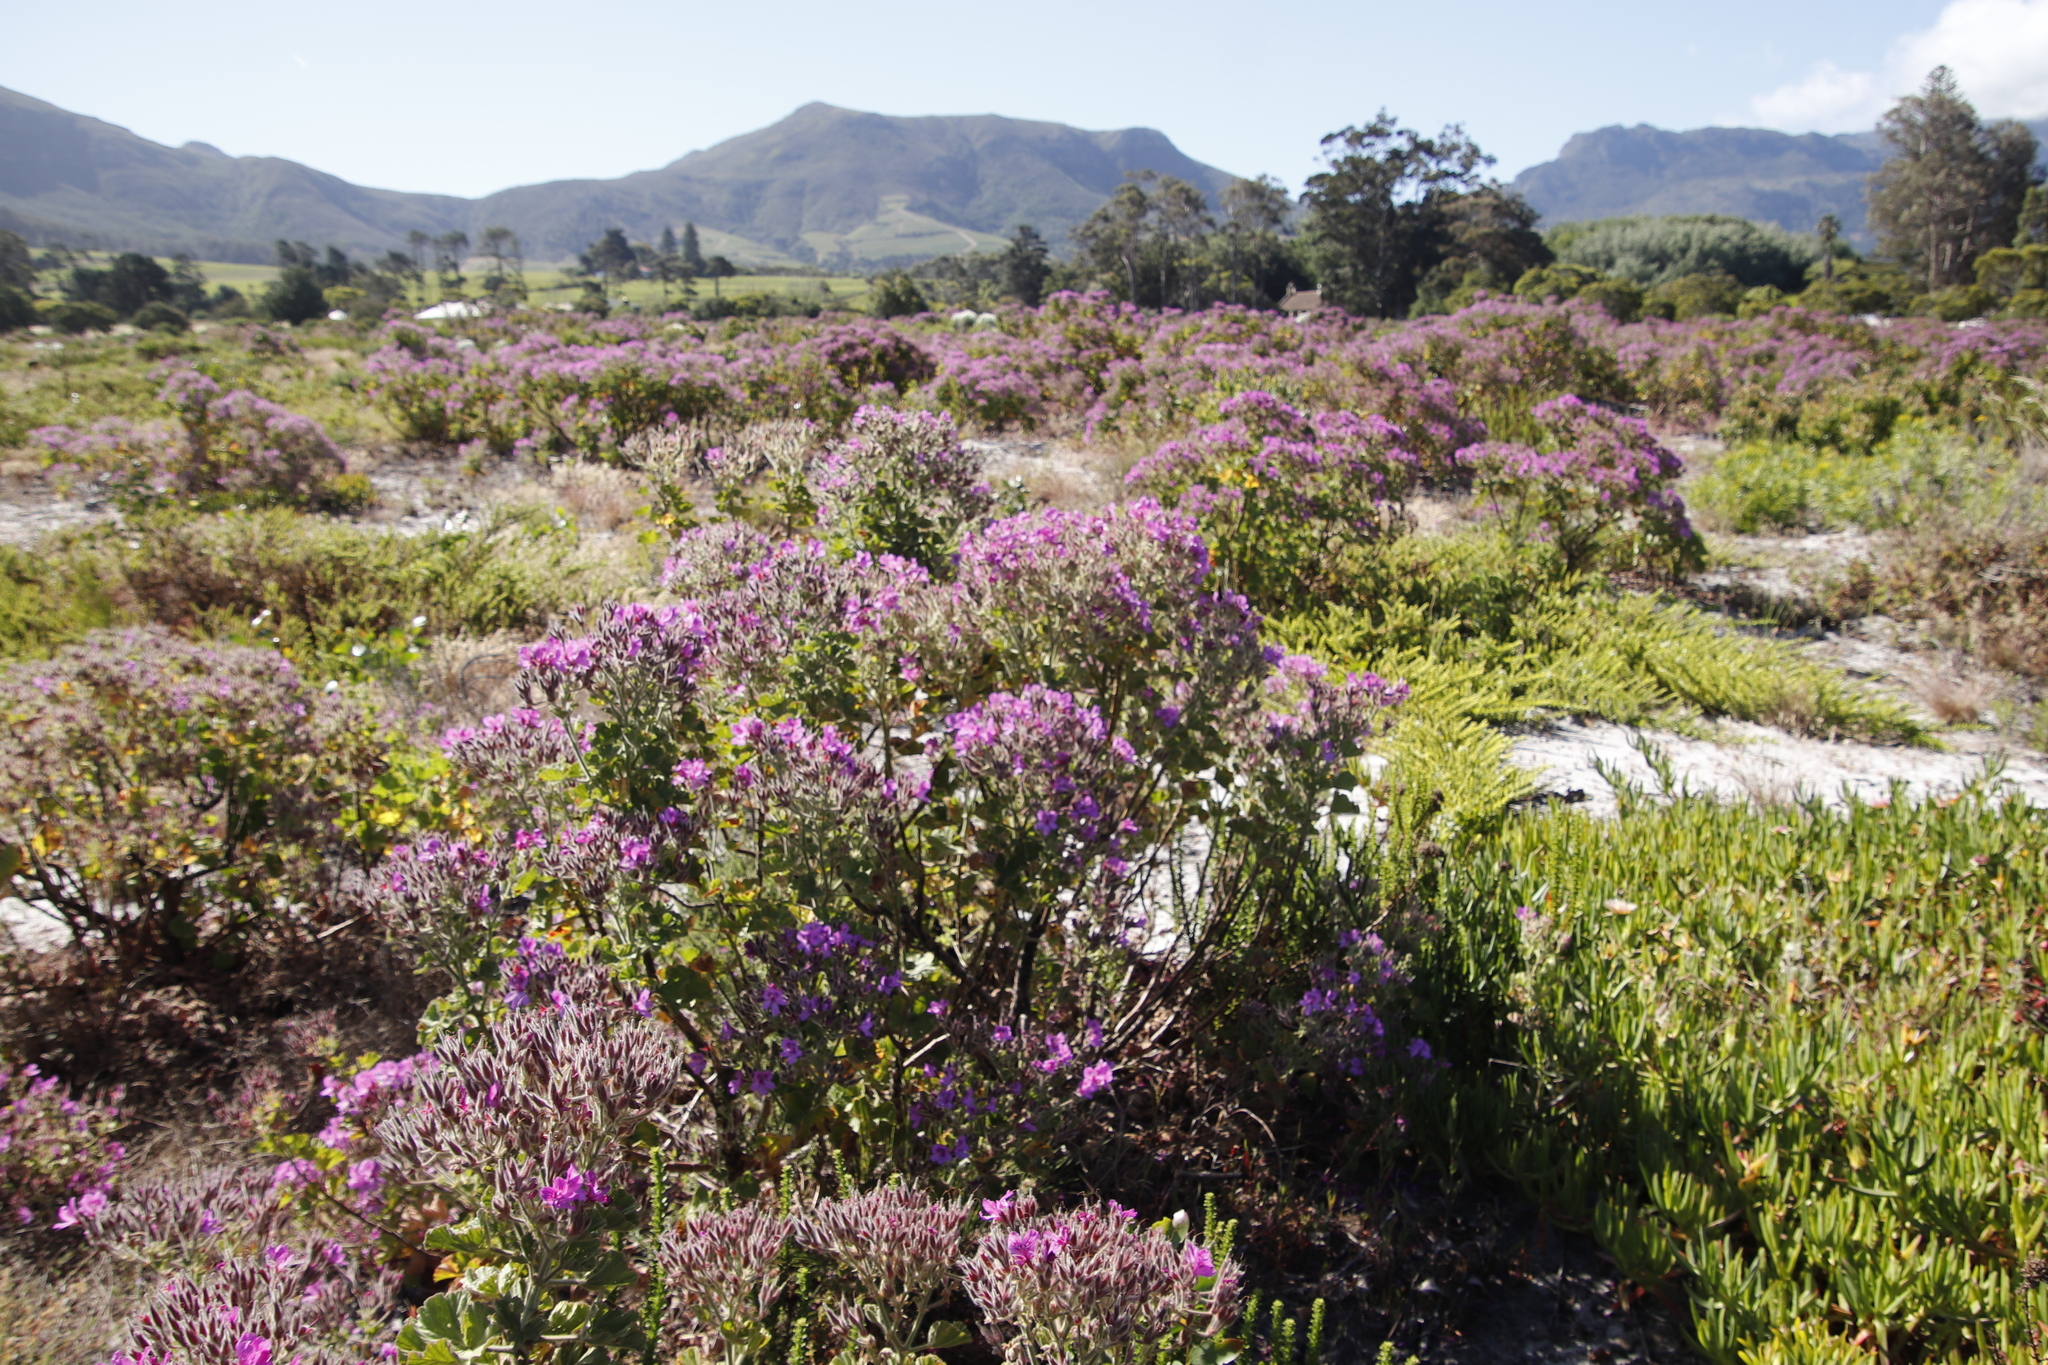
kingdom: Plantae
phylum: Tracheophyta
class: Magnoliopsida
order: Geraniales
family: Geraniaceae
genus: Pelargonium
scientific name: Pelargonium cucullatum
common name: Tree pelargonium
